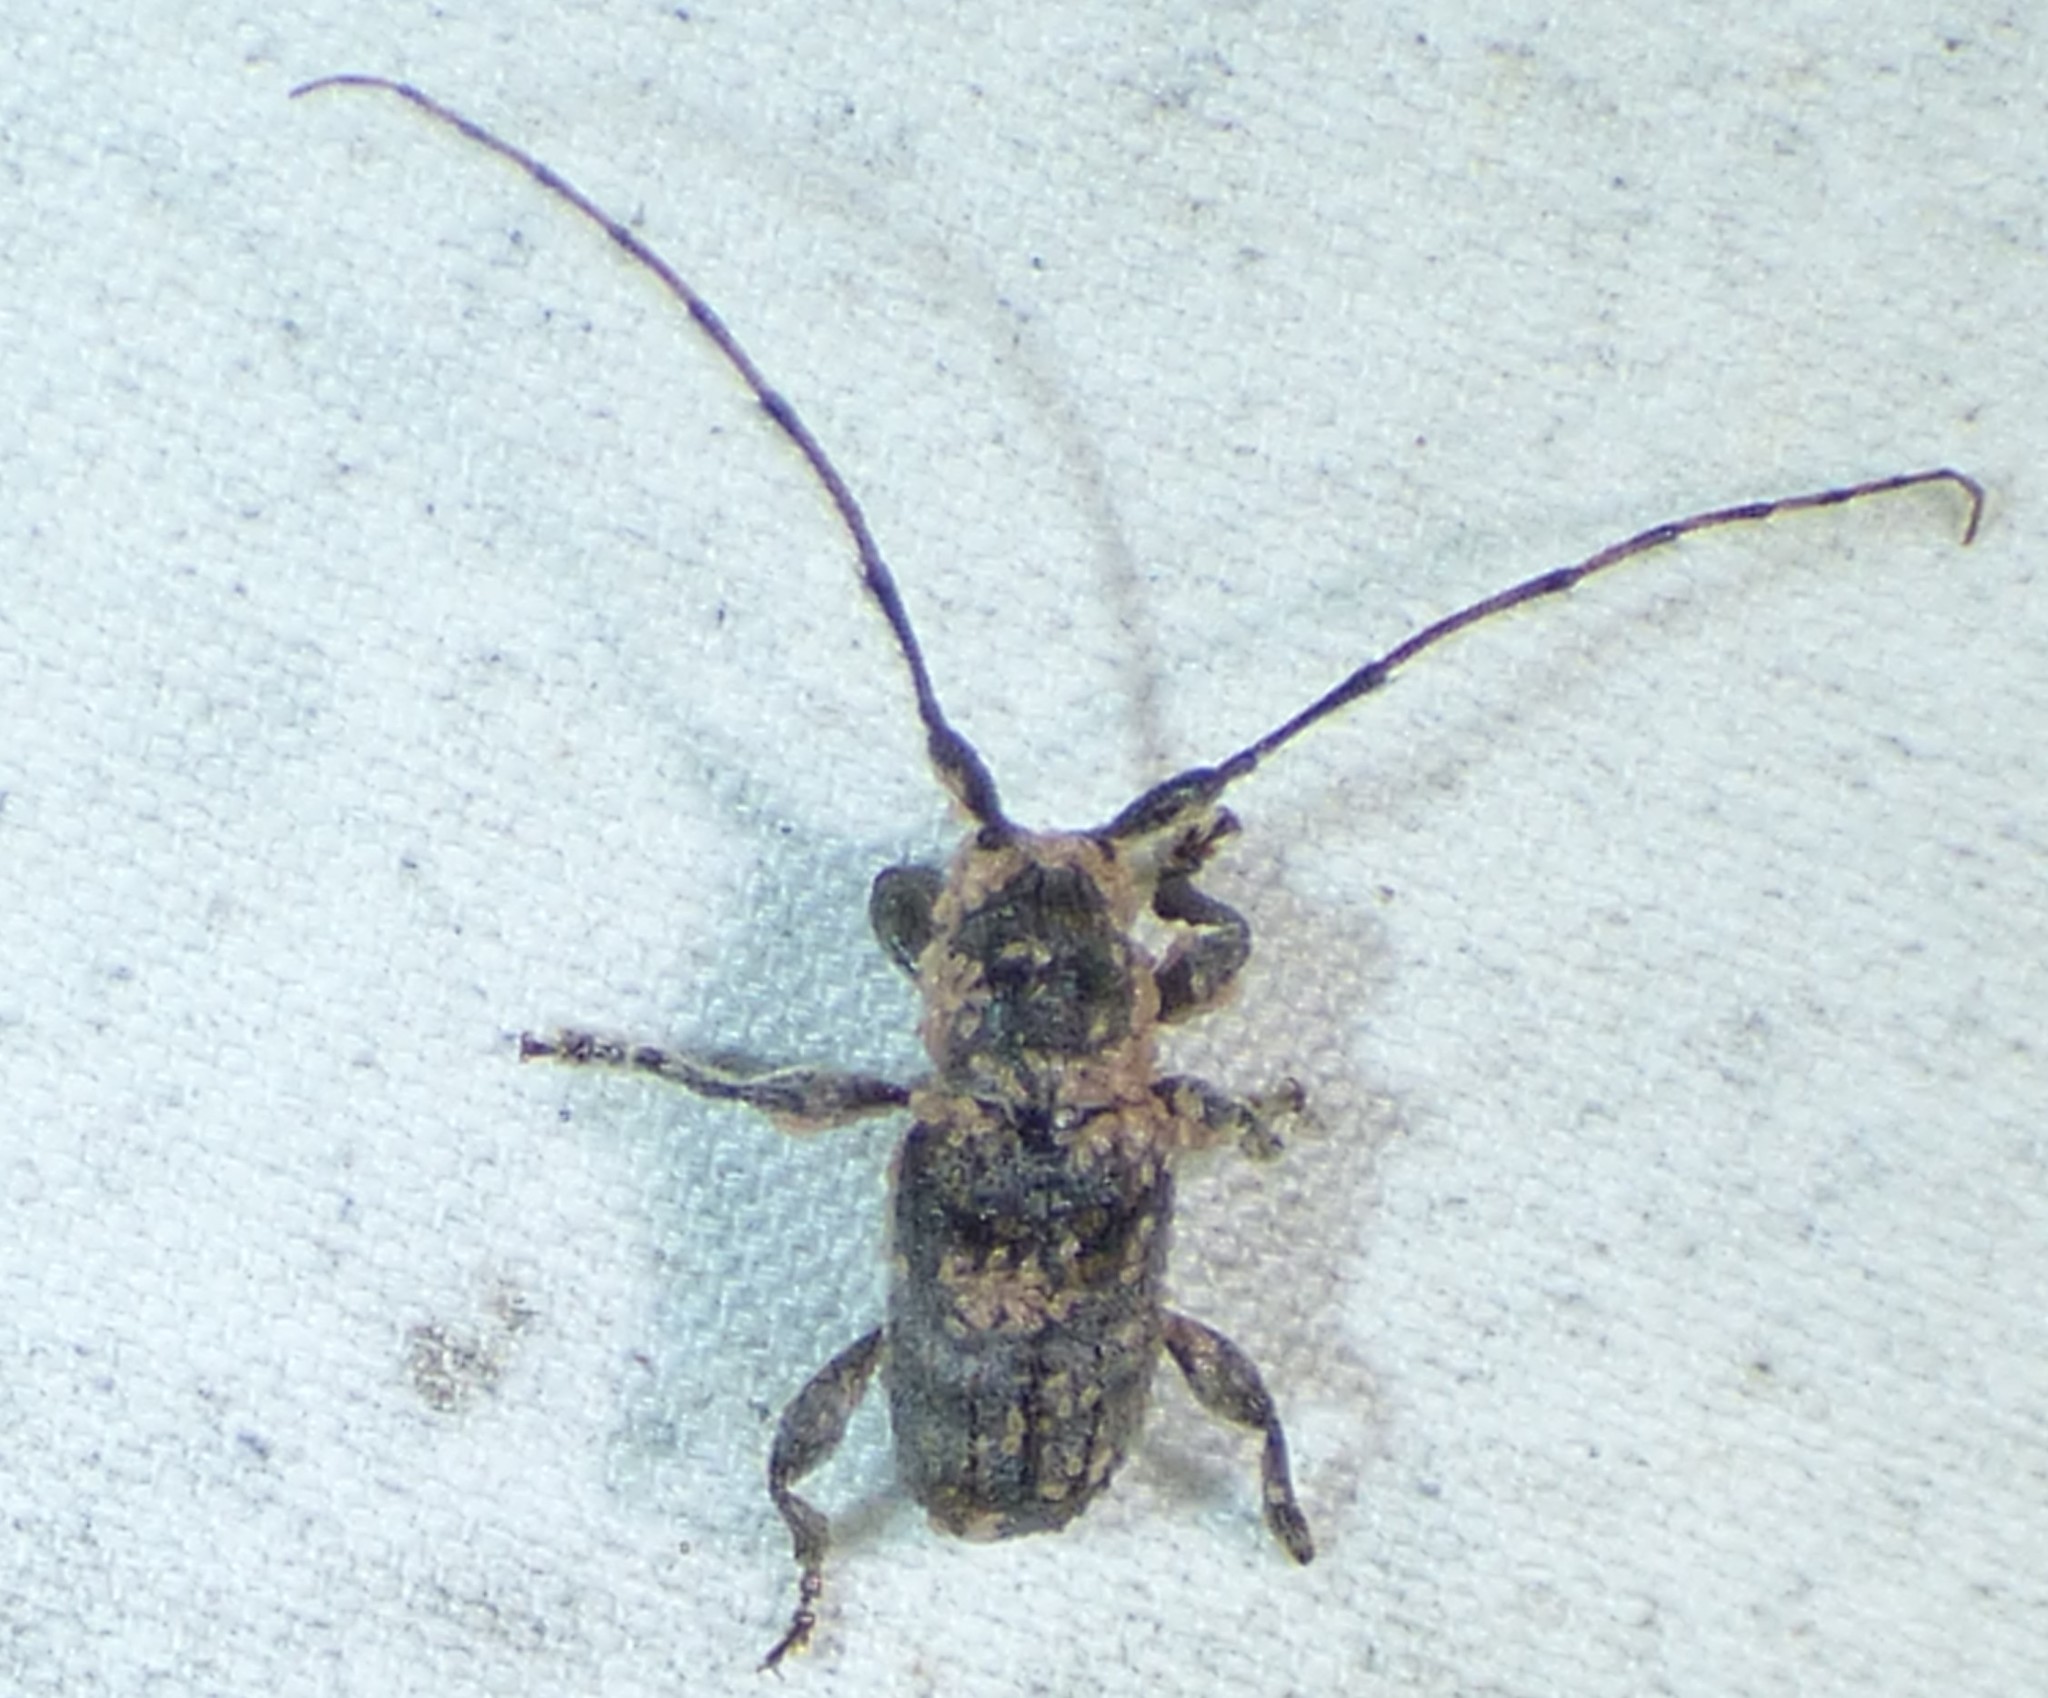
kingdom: Animalia
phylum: Arthropoda
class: Insecta
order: Coleoptera
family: Cerambycidae
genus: Ecyrus
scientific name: Ecyrus dasycerus
